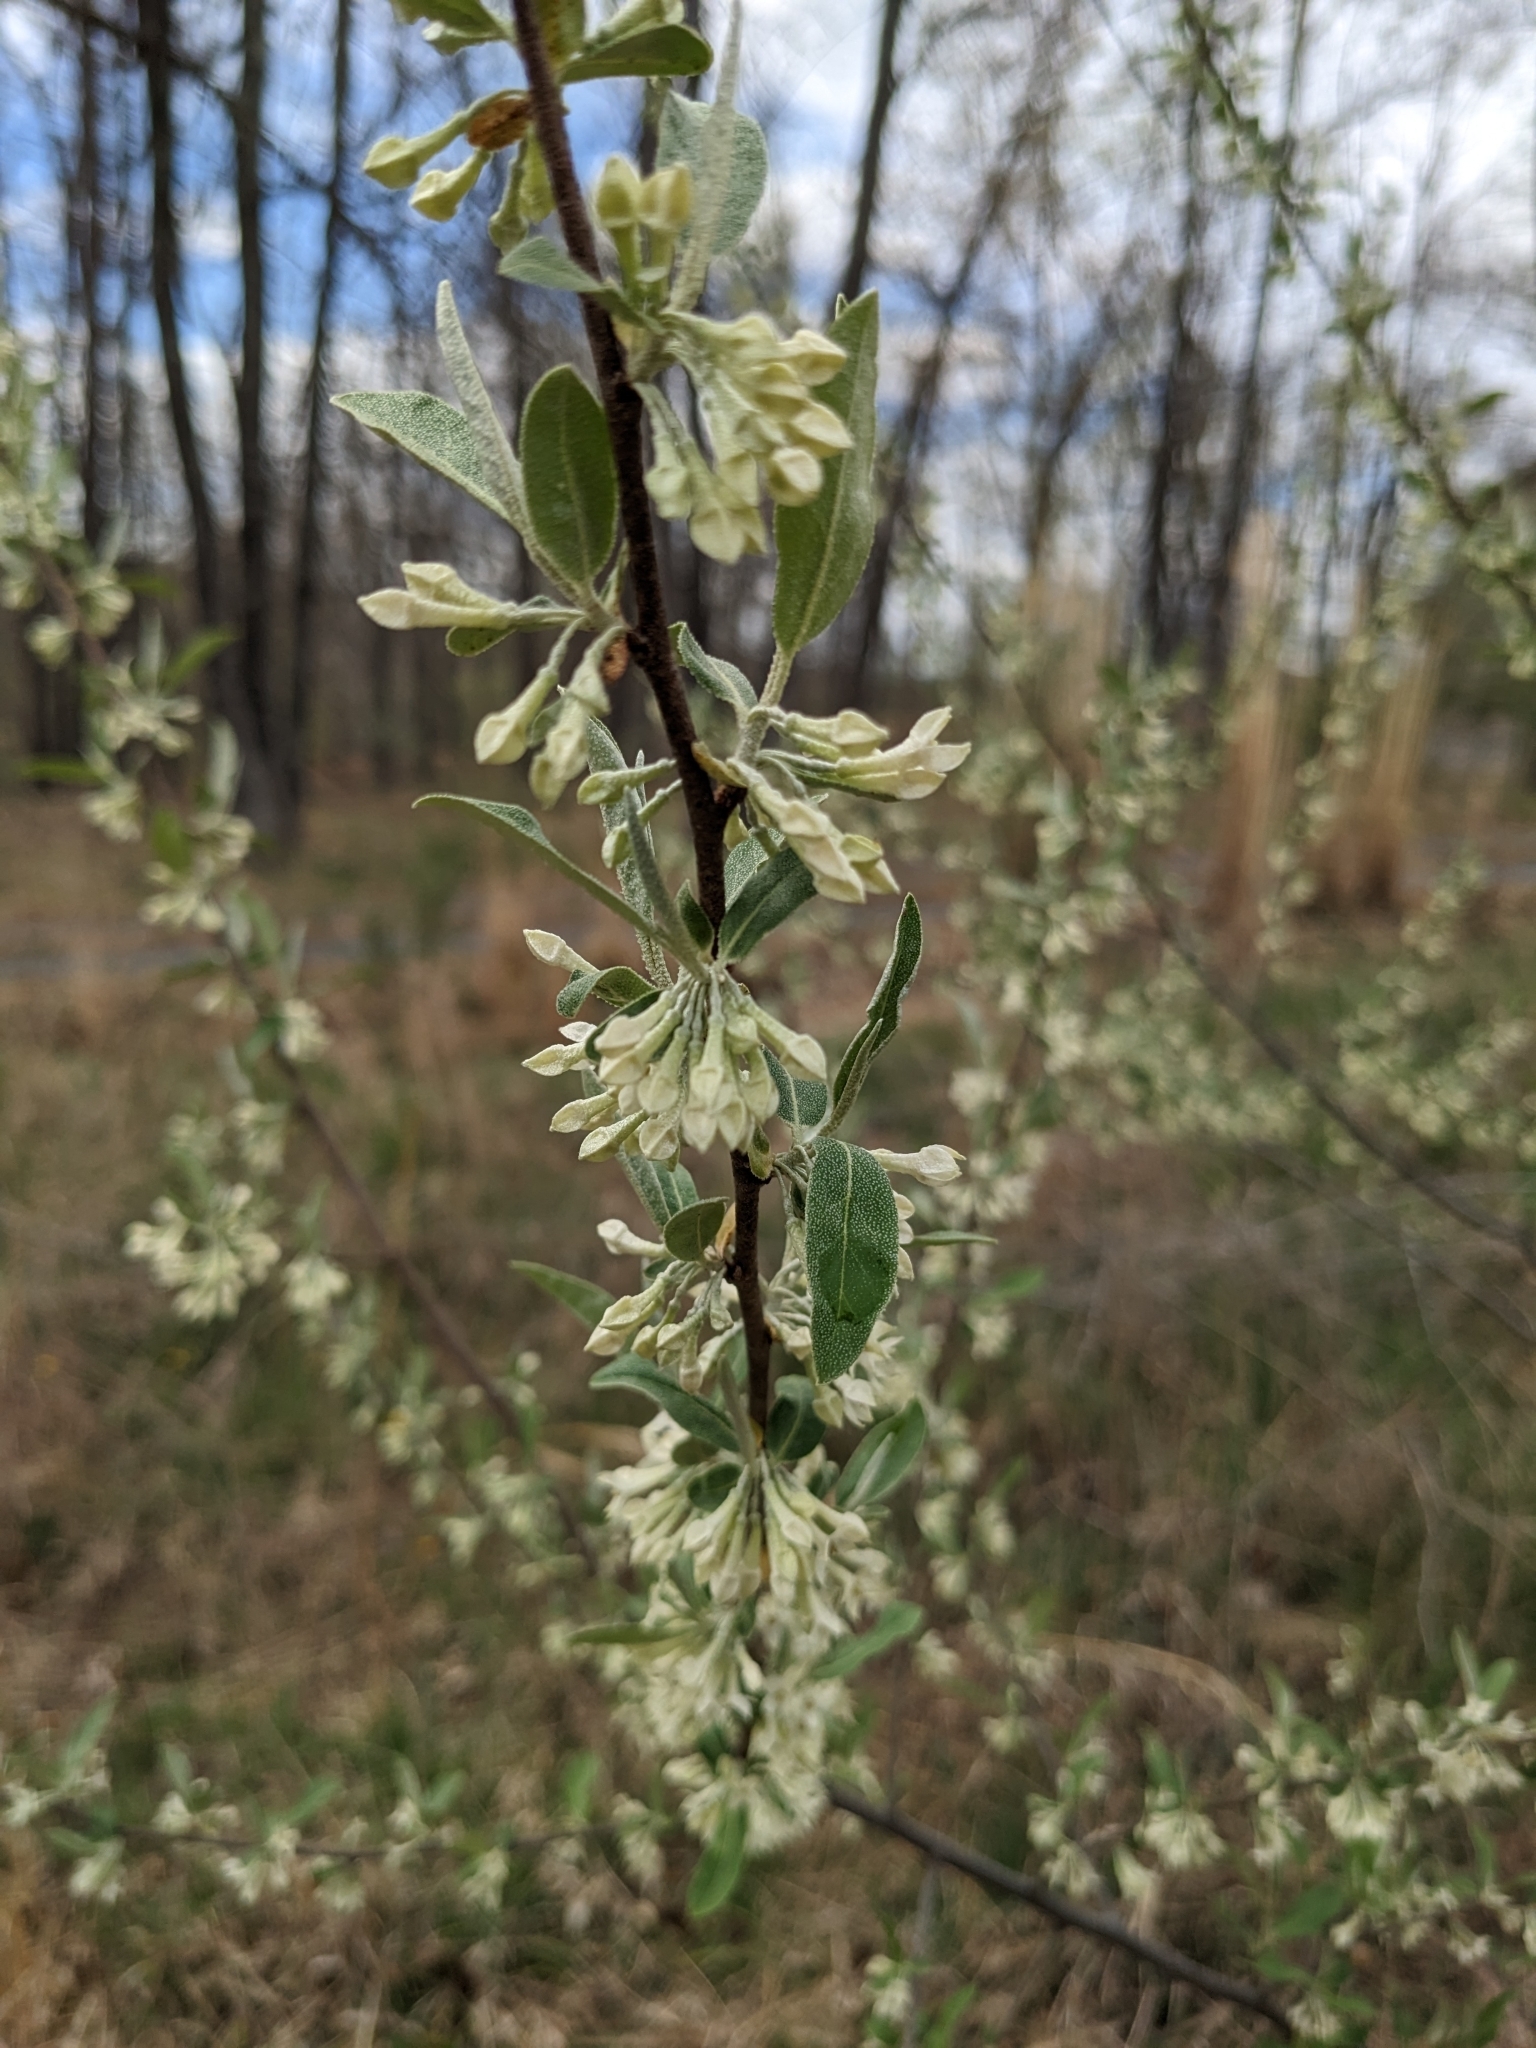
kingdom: Plantae
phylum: Tracheophyta
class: Magnoliopsida
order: Rosales
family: Elaeagnaceae
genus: Elaeagnus
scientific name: Elaeagnus umbellata
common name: Autumn olive
